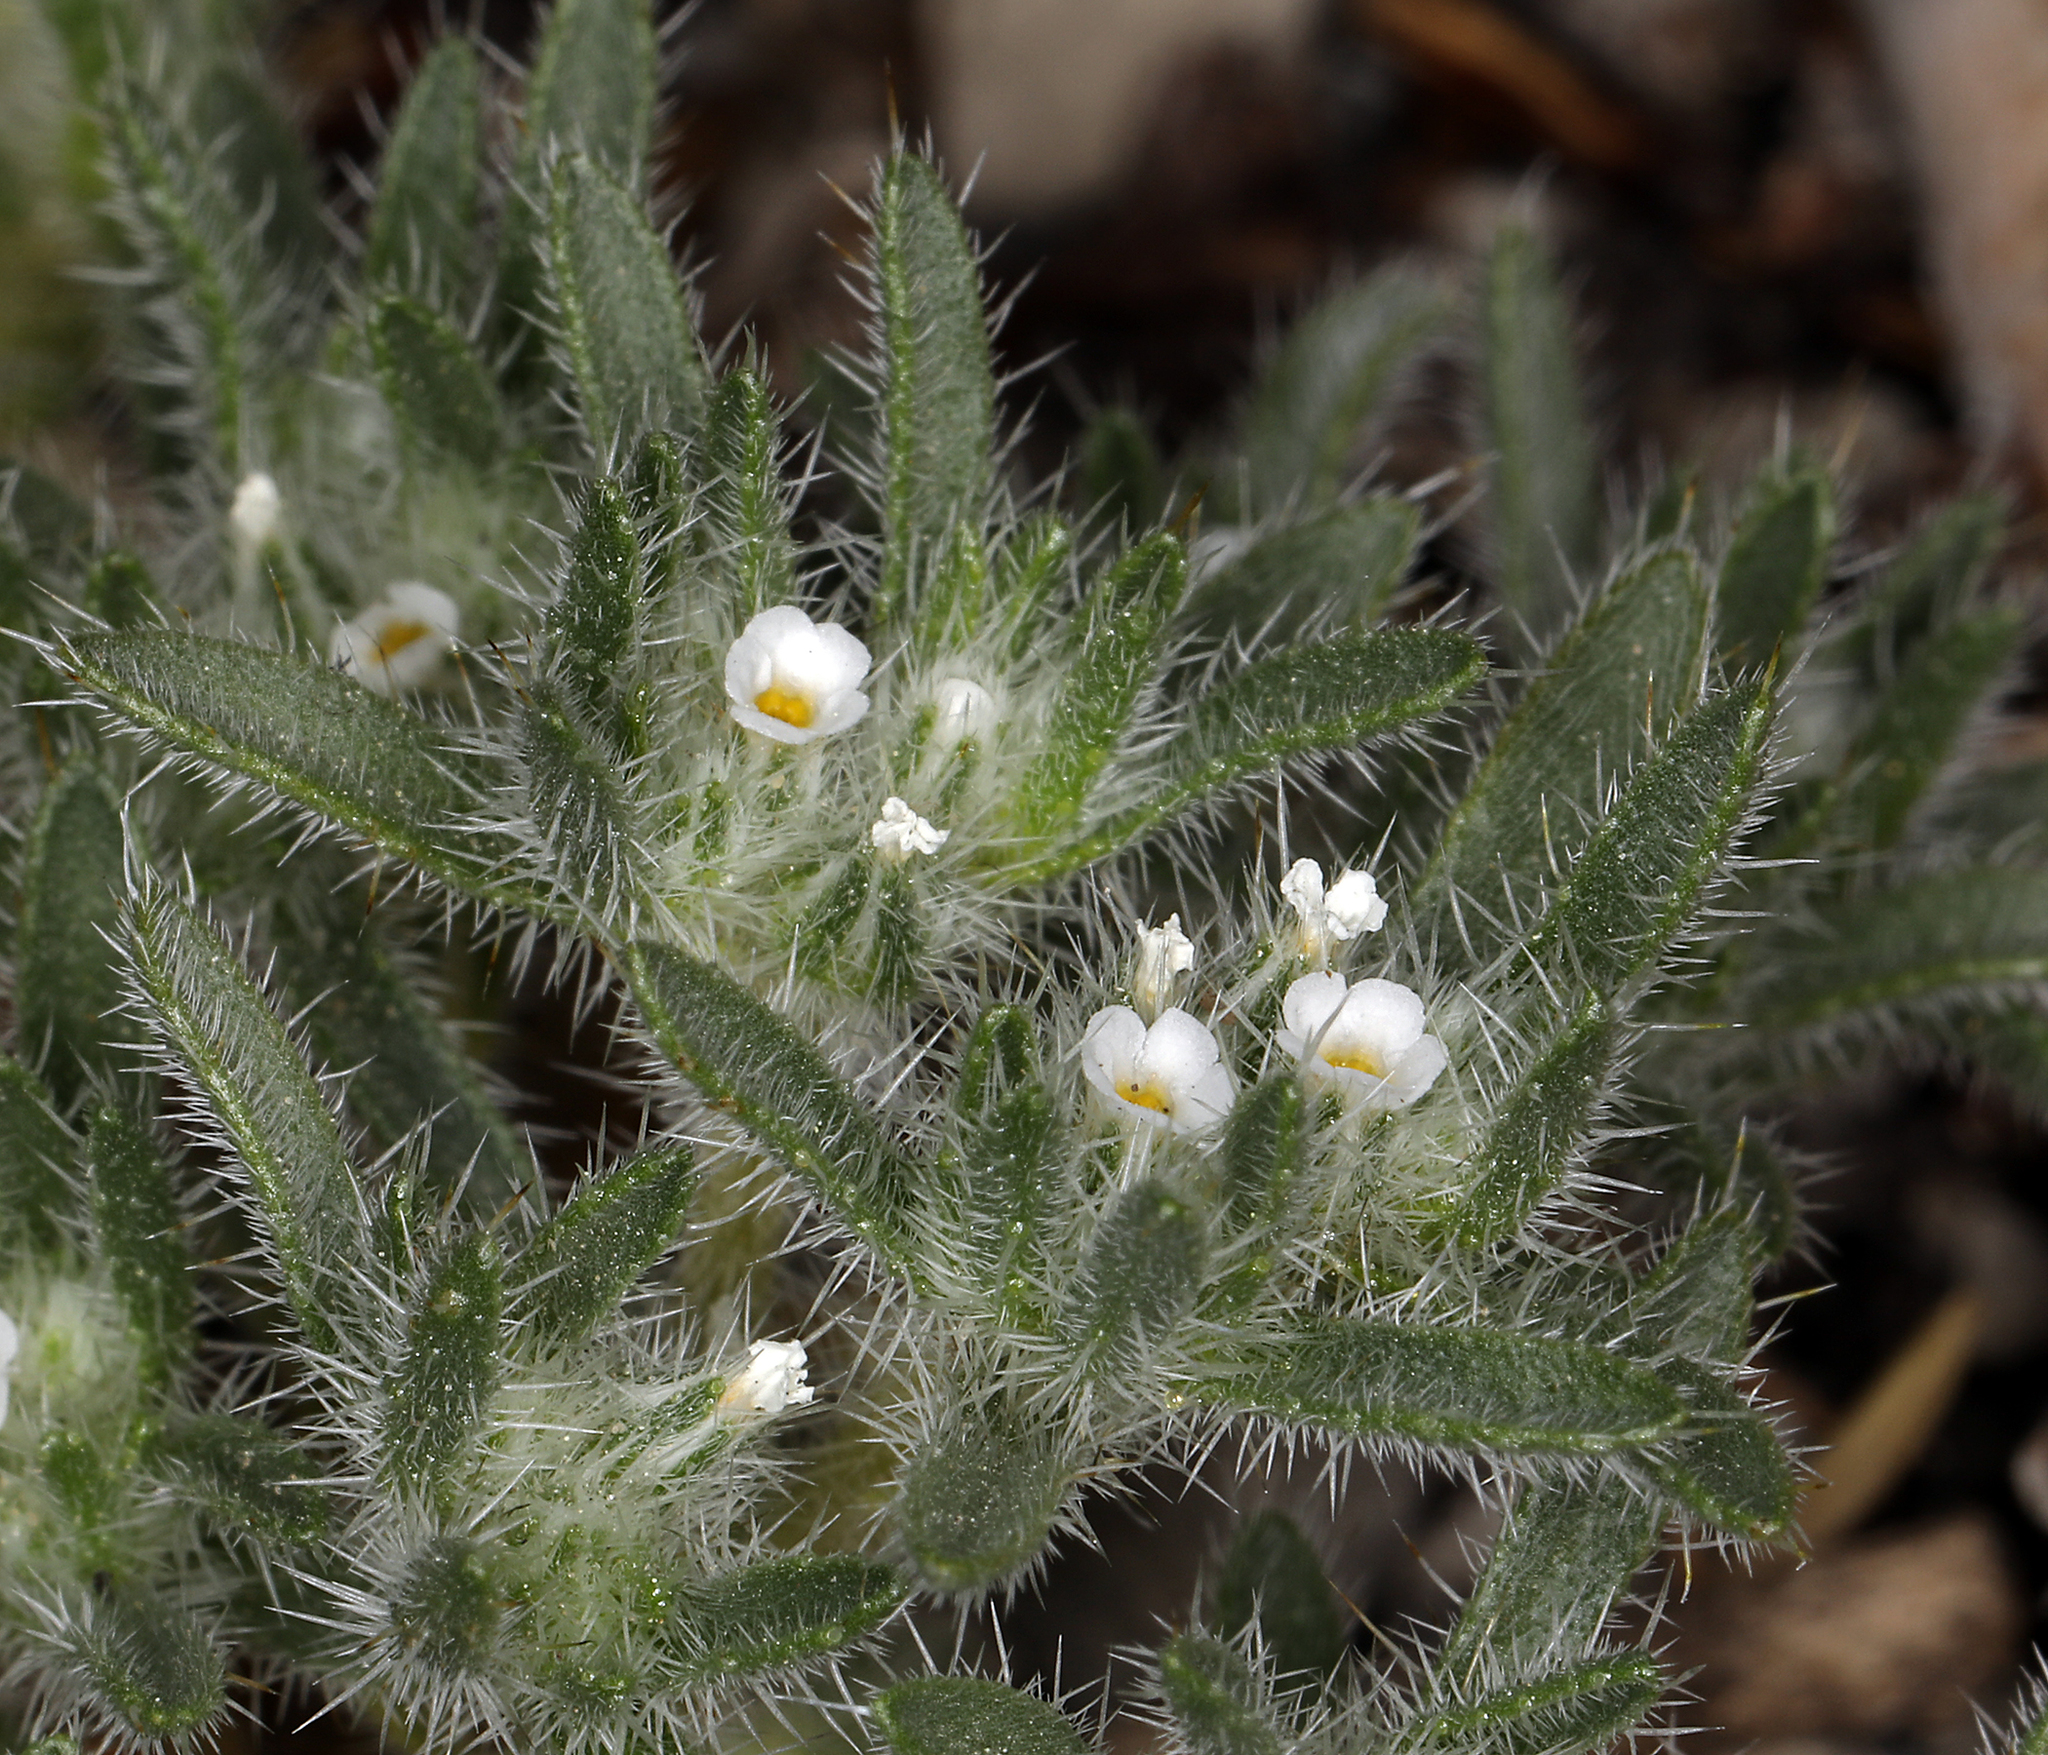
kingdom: Plantae
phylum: Tracheophyta
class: Magnoliopsida
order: Boraginales
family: Boraginaceae
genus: Greeneocharis
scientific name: Greeneocharis circumscissa
